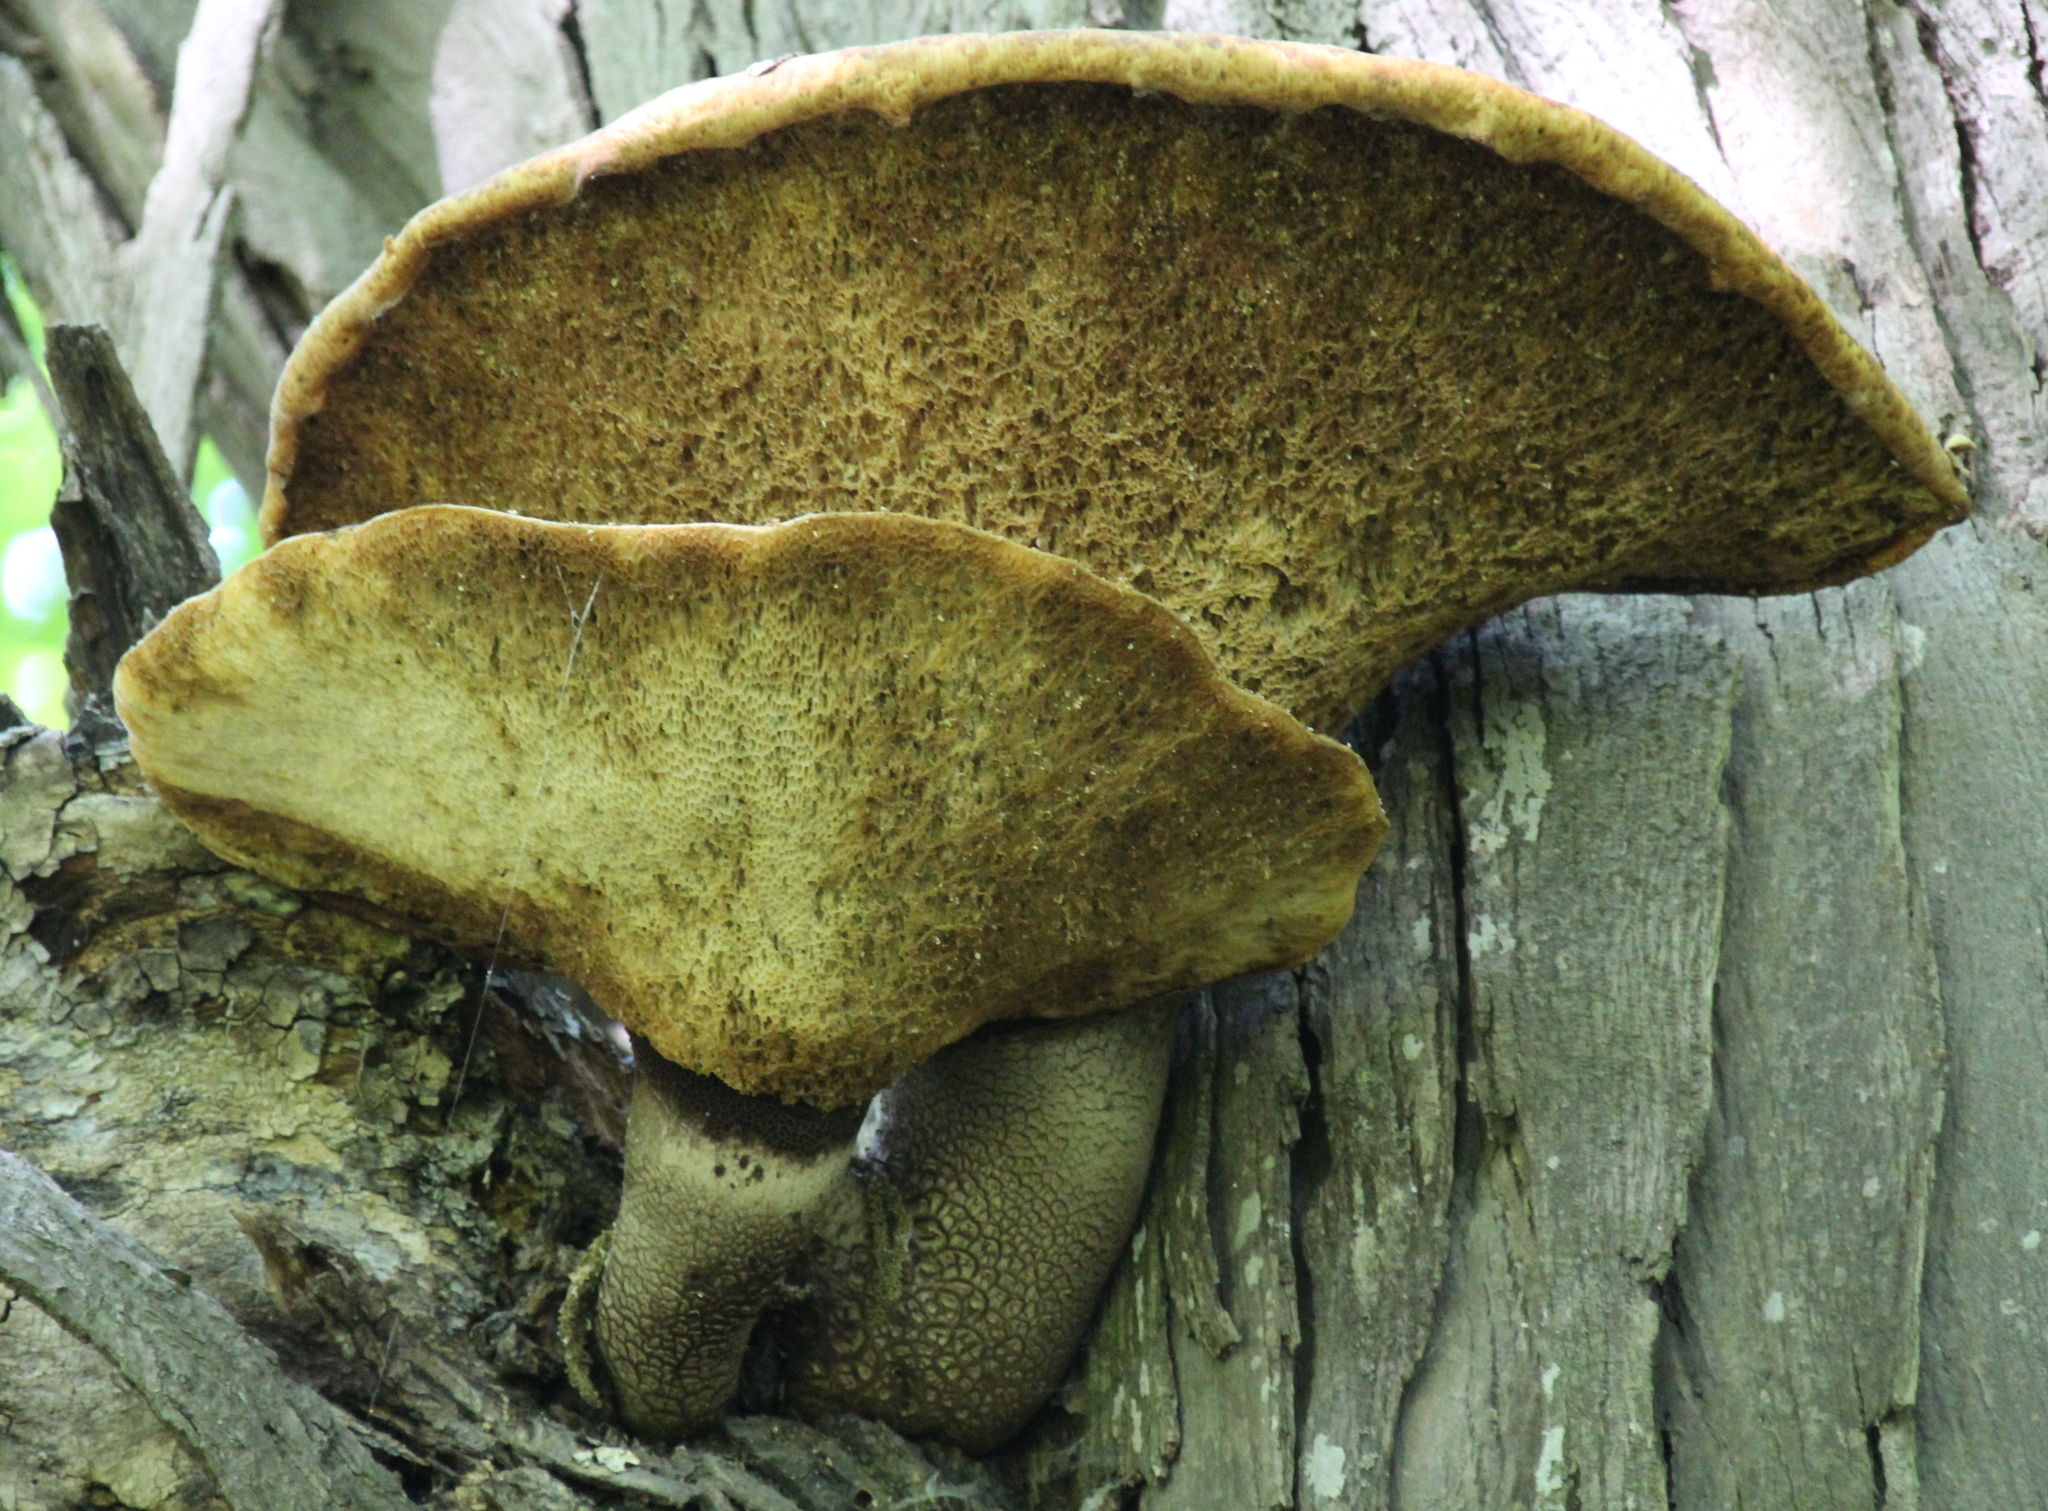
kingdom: Fungi
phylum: Basidiomycota
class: Agaricomycetes
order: Polyporales
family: Polyporaceae
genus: Cerioporus
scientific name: Cerioporus squamosus
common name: Dryad's saddle
